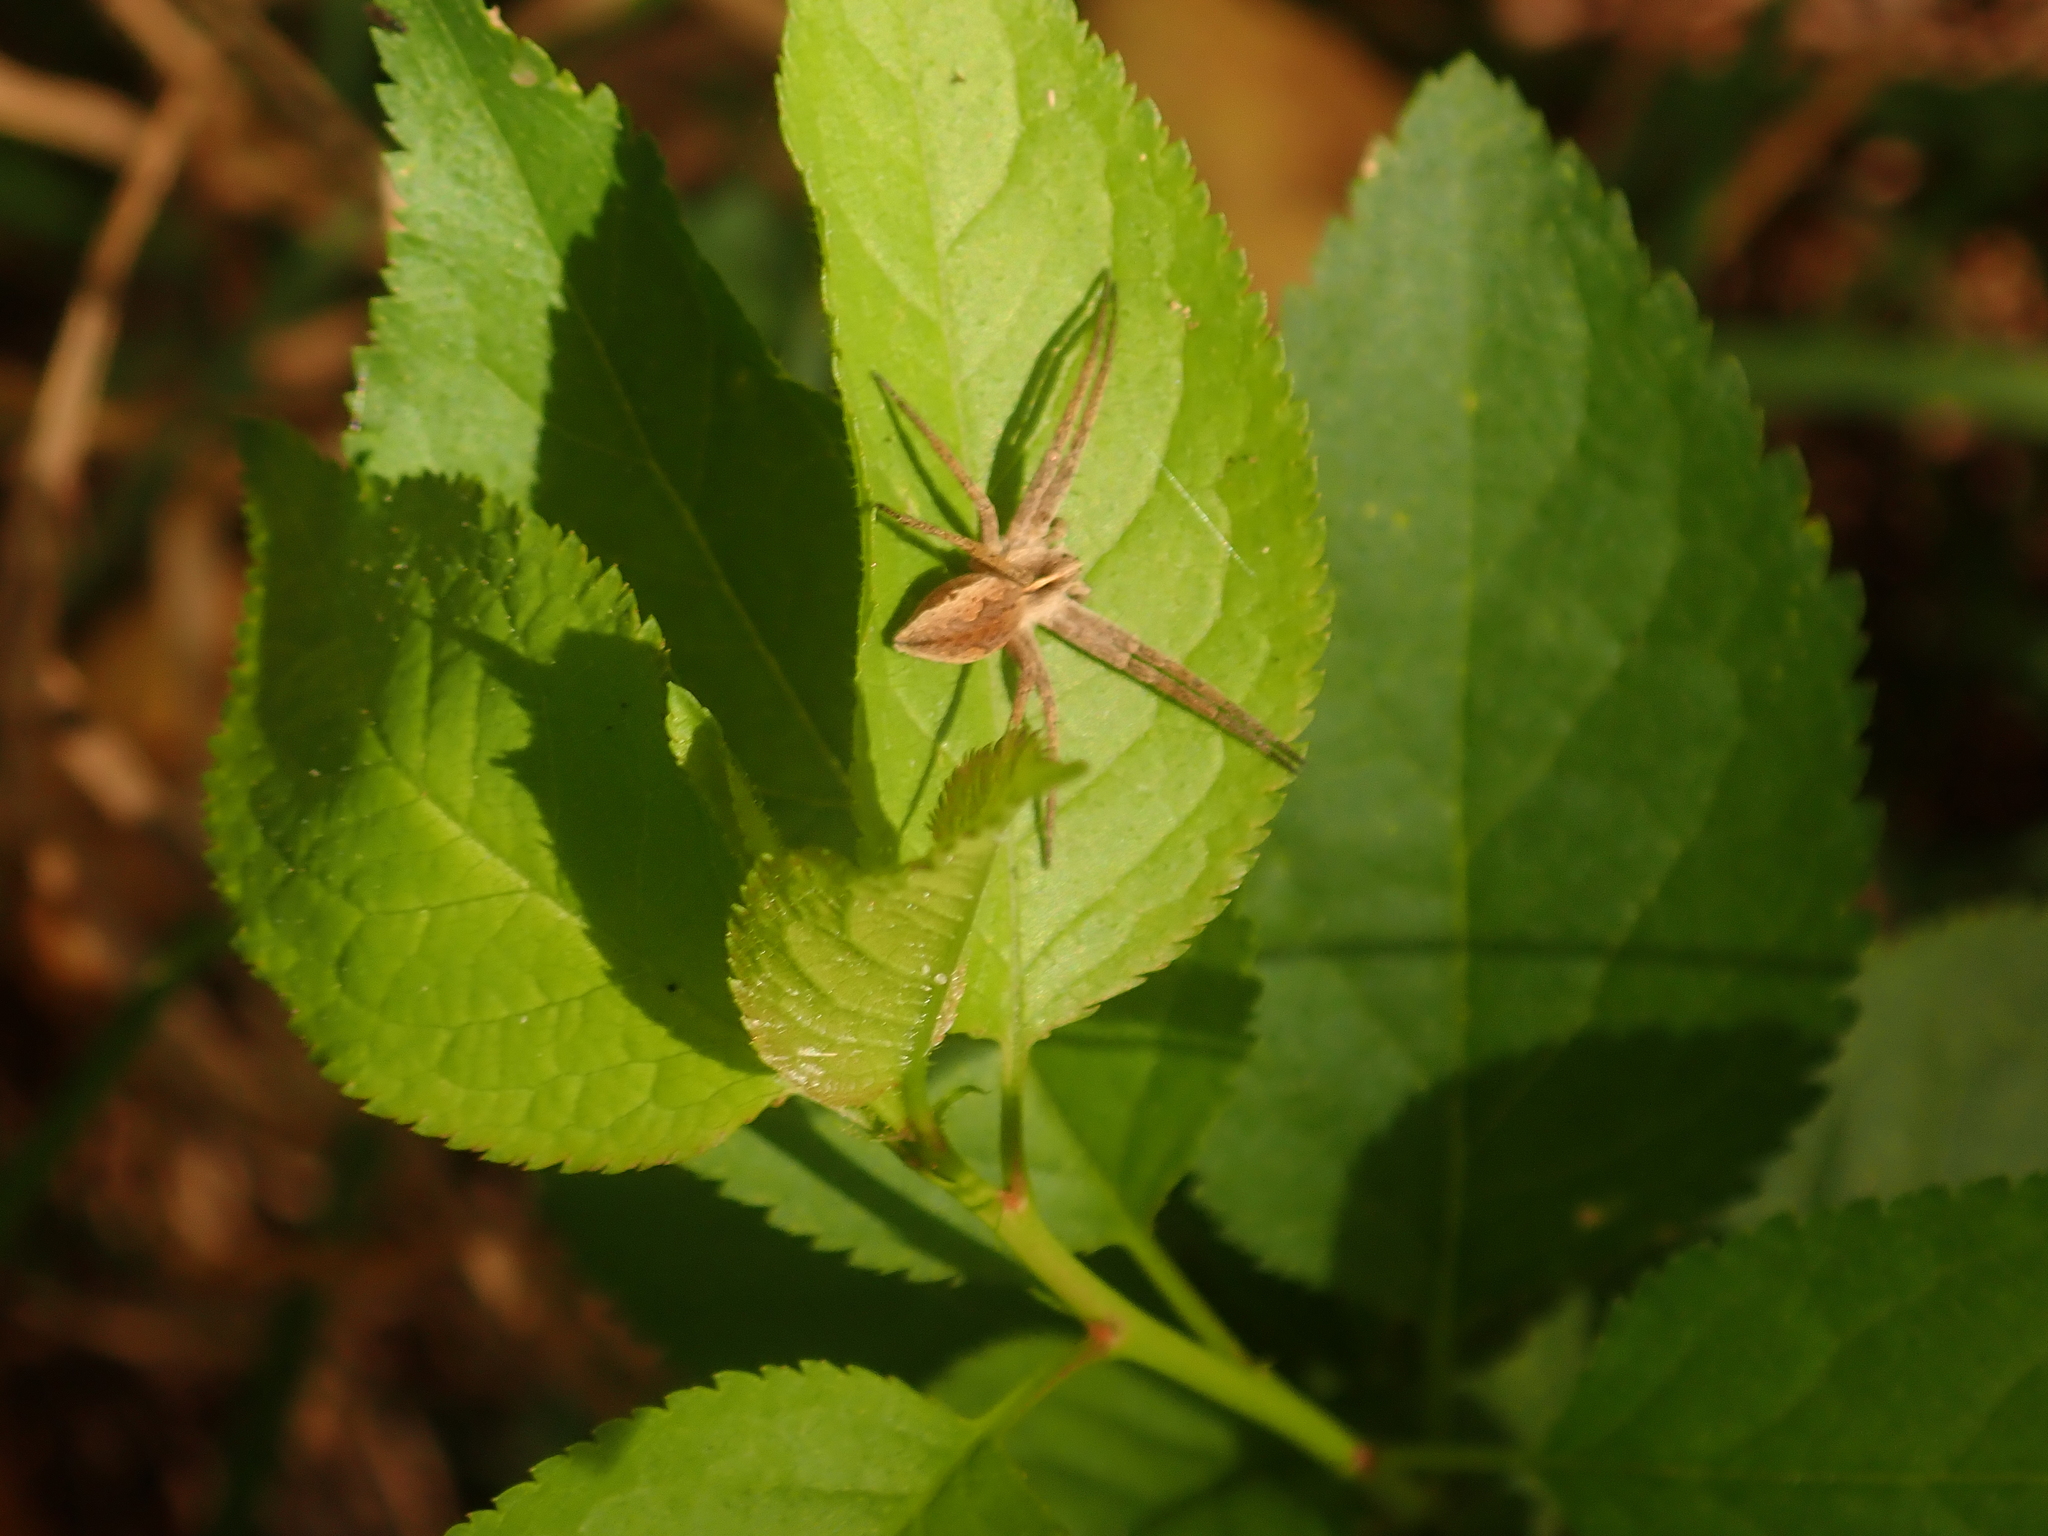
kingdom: Animalia
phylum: Arthropoda
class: Arachnida
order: Araneae
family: Pisauridae
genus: Pisaura
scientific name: Pisaura mirabilis
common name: Tent spider
